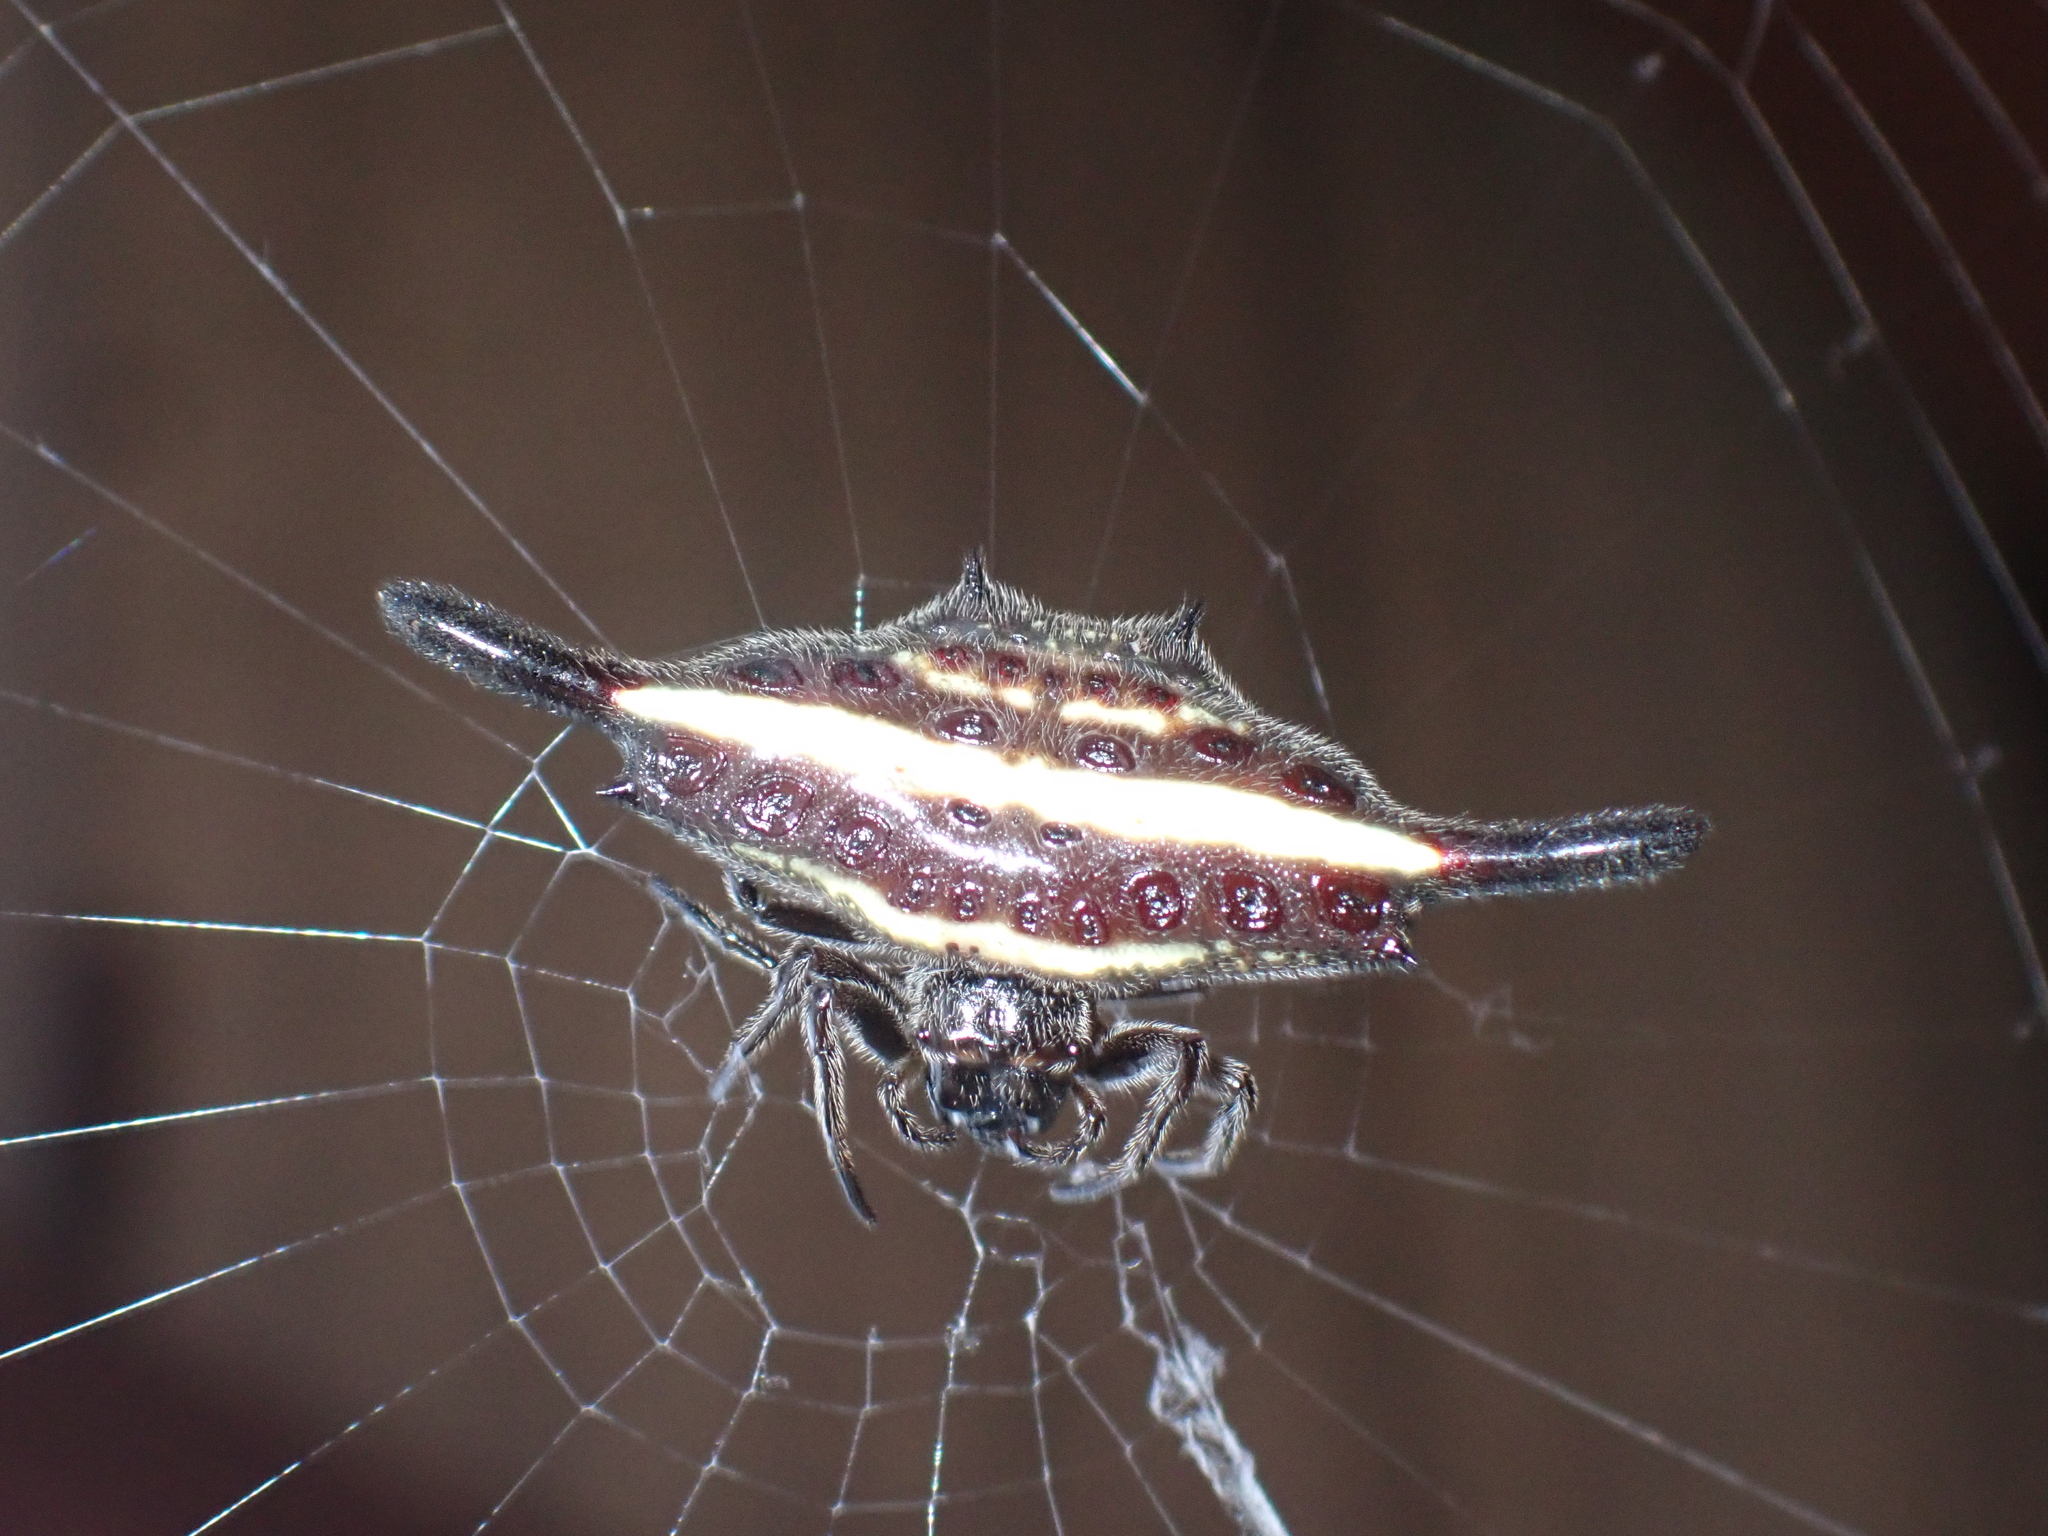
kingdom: Animalia
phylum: Arthropoda
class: Arachnida
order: Araneae
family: Araneidae
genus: Gasteracantha
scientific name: Gasteracantha diardi
